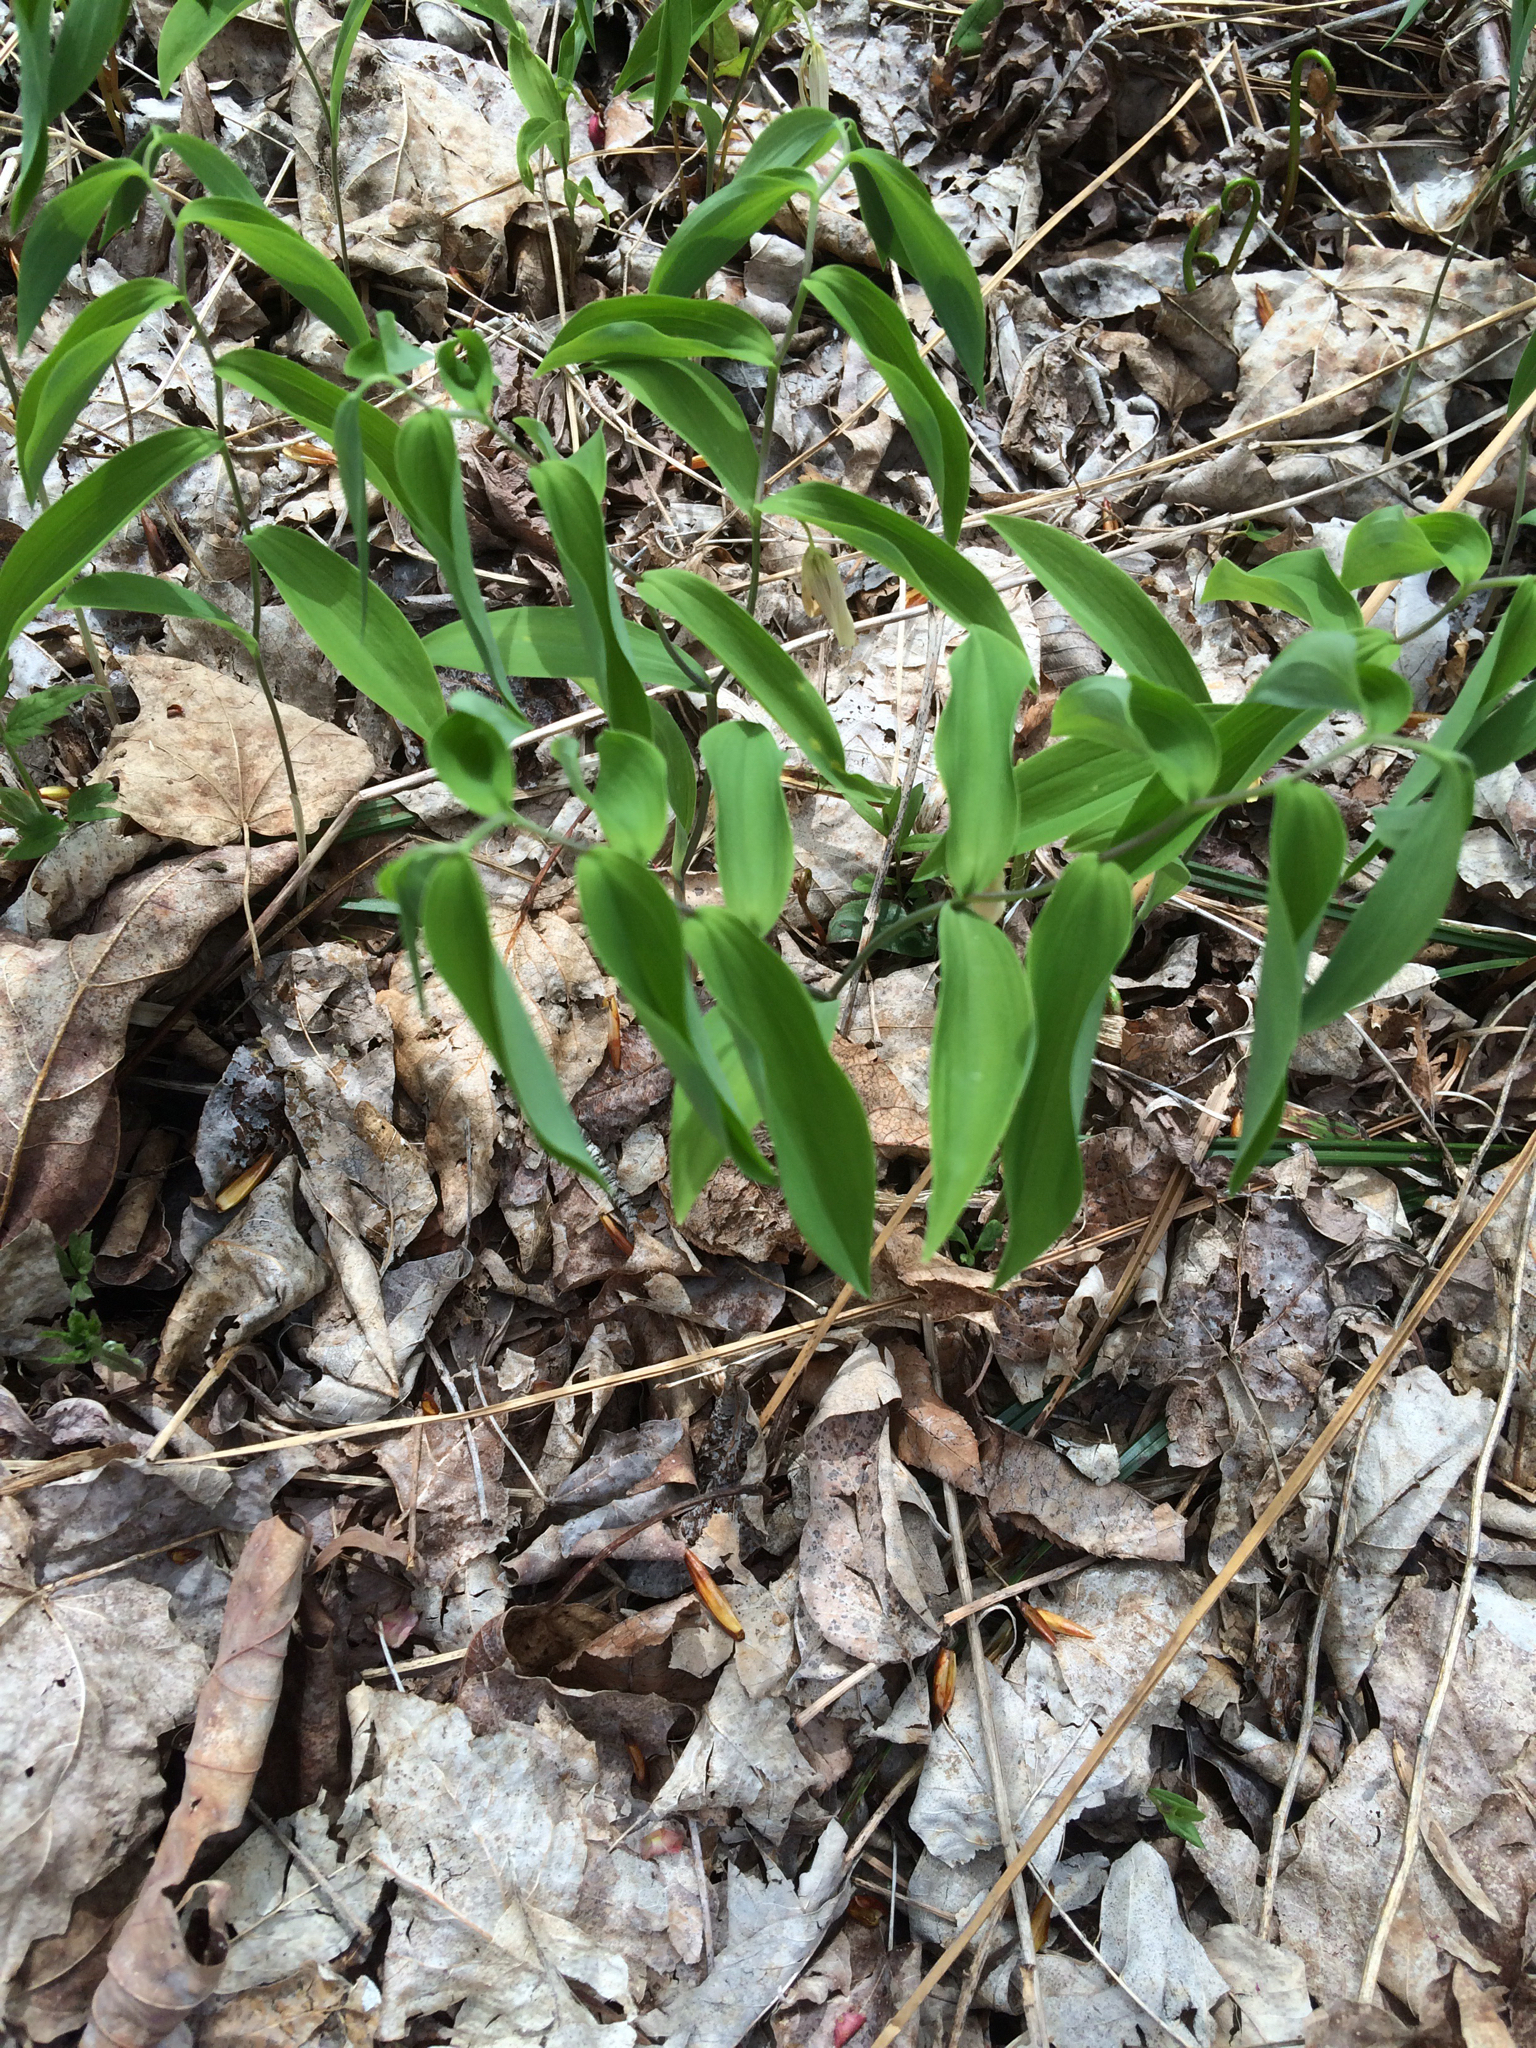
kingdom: Plantae
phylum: Tracheophyta
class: Liliopsida
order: Liliales
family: Colchicaceae
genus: Uvularia
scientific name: Uvularia sessilifolia
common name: Straw-lily
